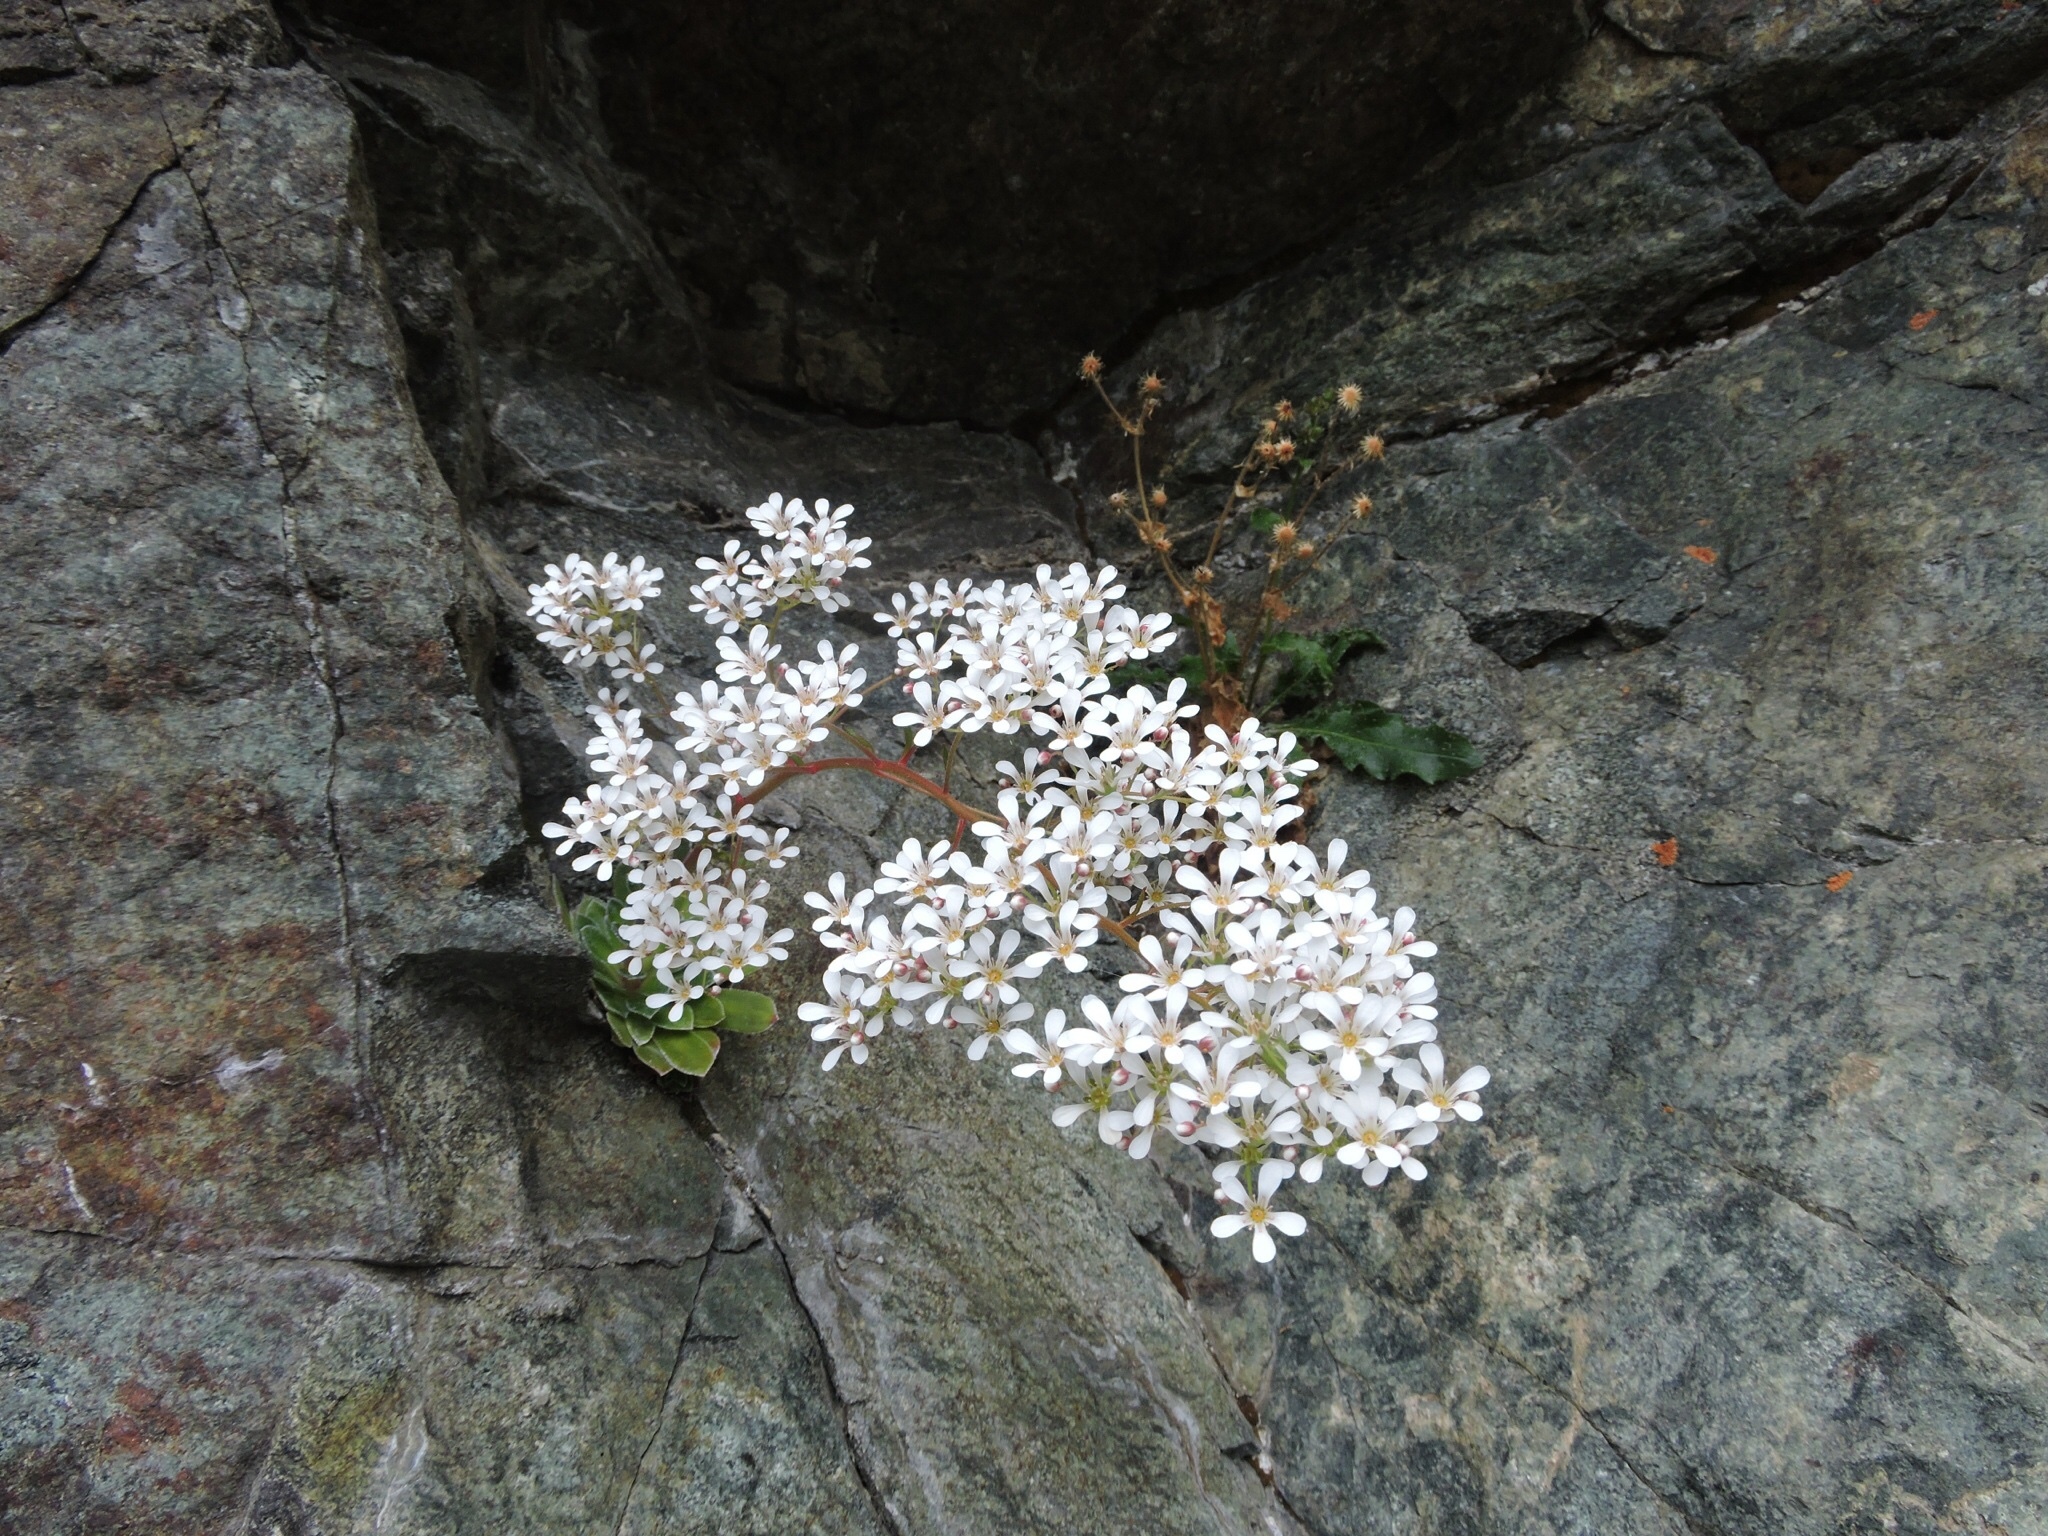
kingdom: Plantae
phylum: Tracheophyta
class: Magnoliopsida
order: Saxifragales
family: Saxifragaceae
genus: Saxifraga
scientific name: Saxifraga cotyledon
